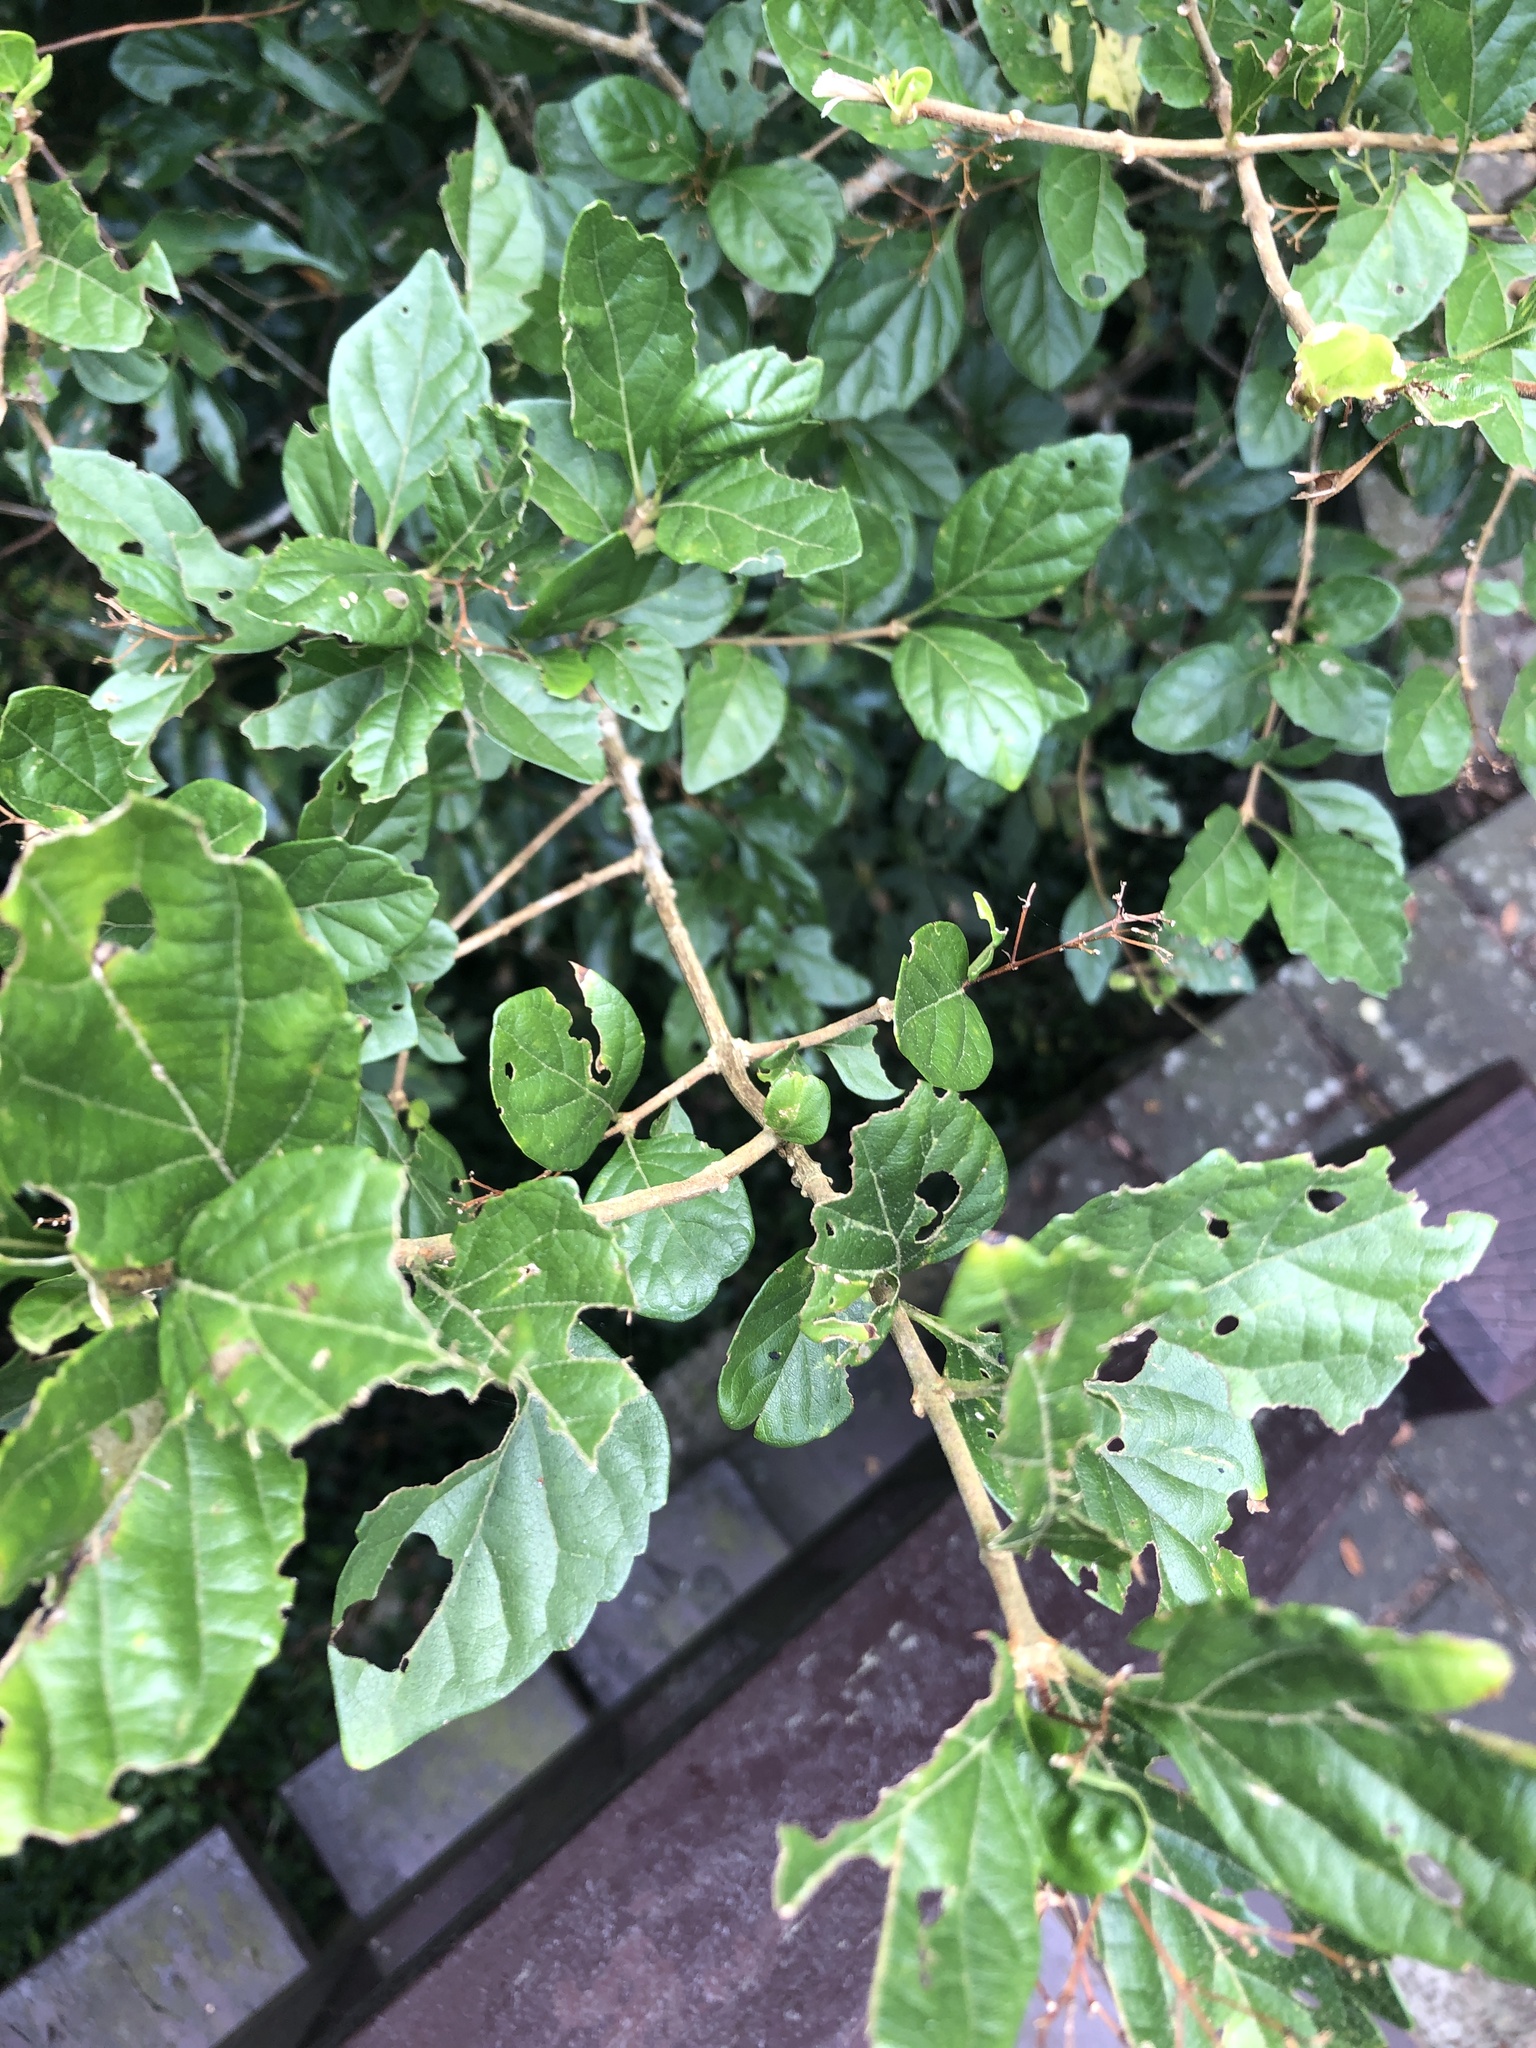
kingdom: Plantae
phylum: Tracheophyta
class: Magnoliopsida
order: Lamiales
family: Lamiaceae
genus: Premna
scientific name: Premna microphylla
